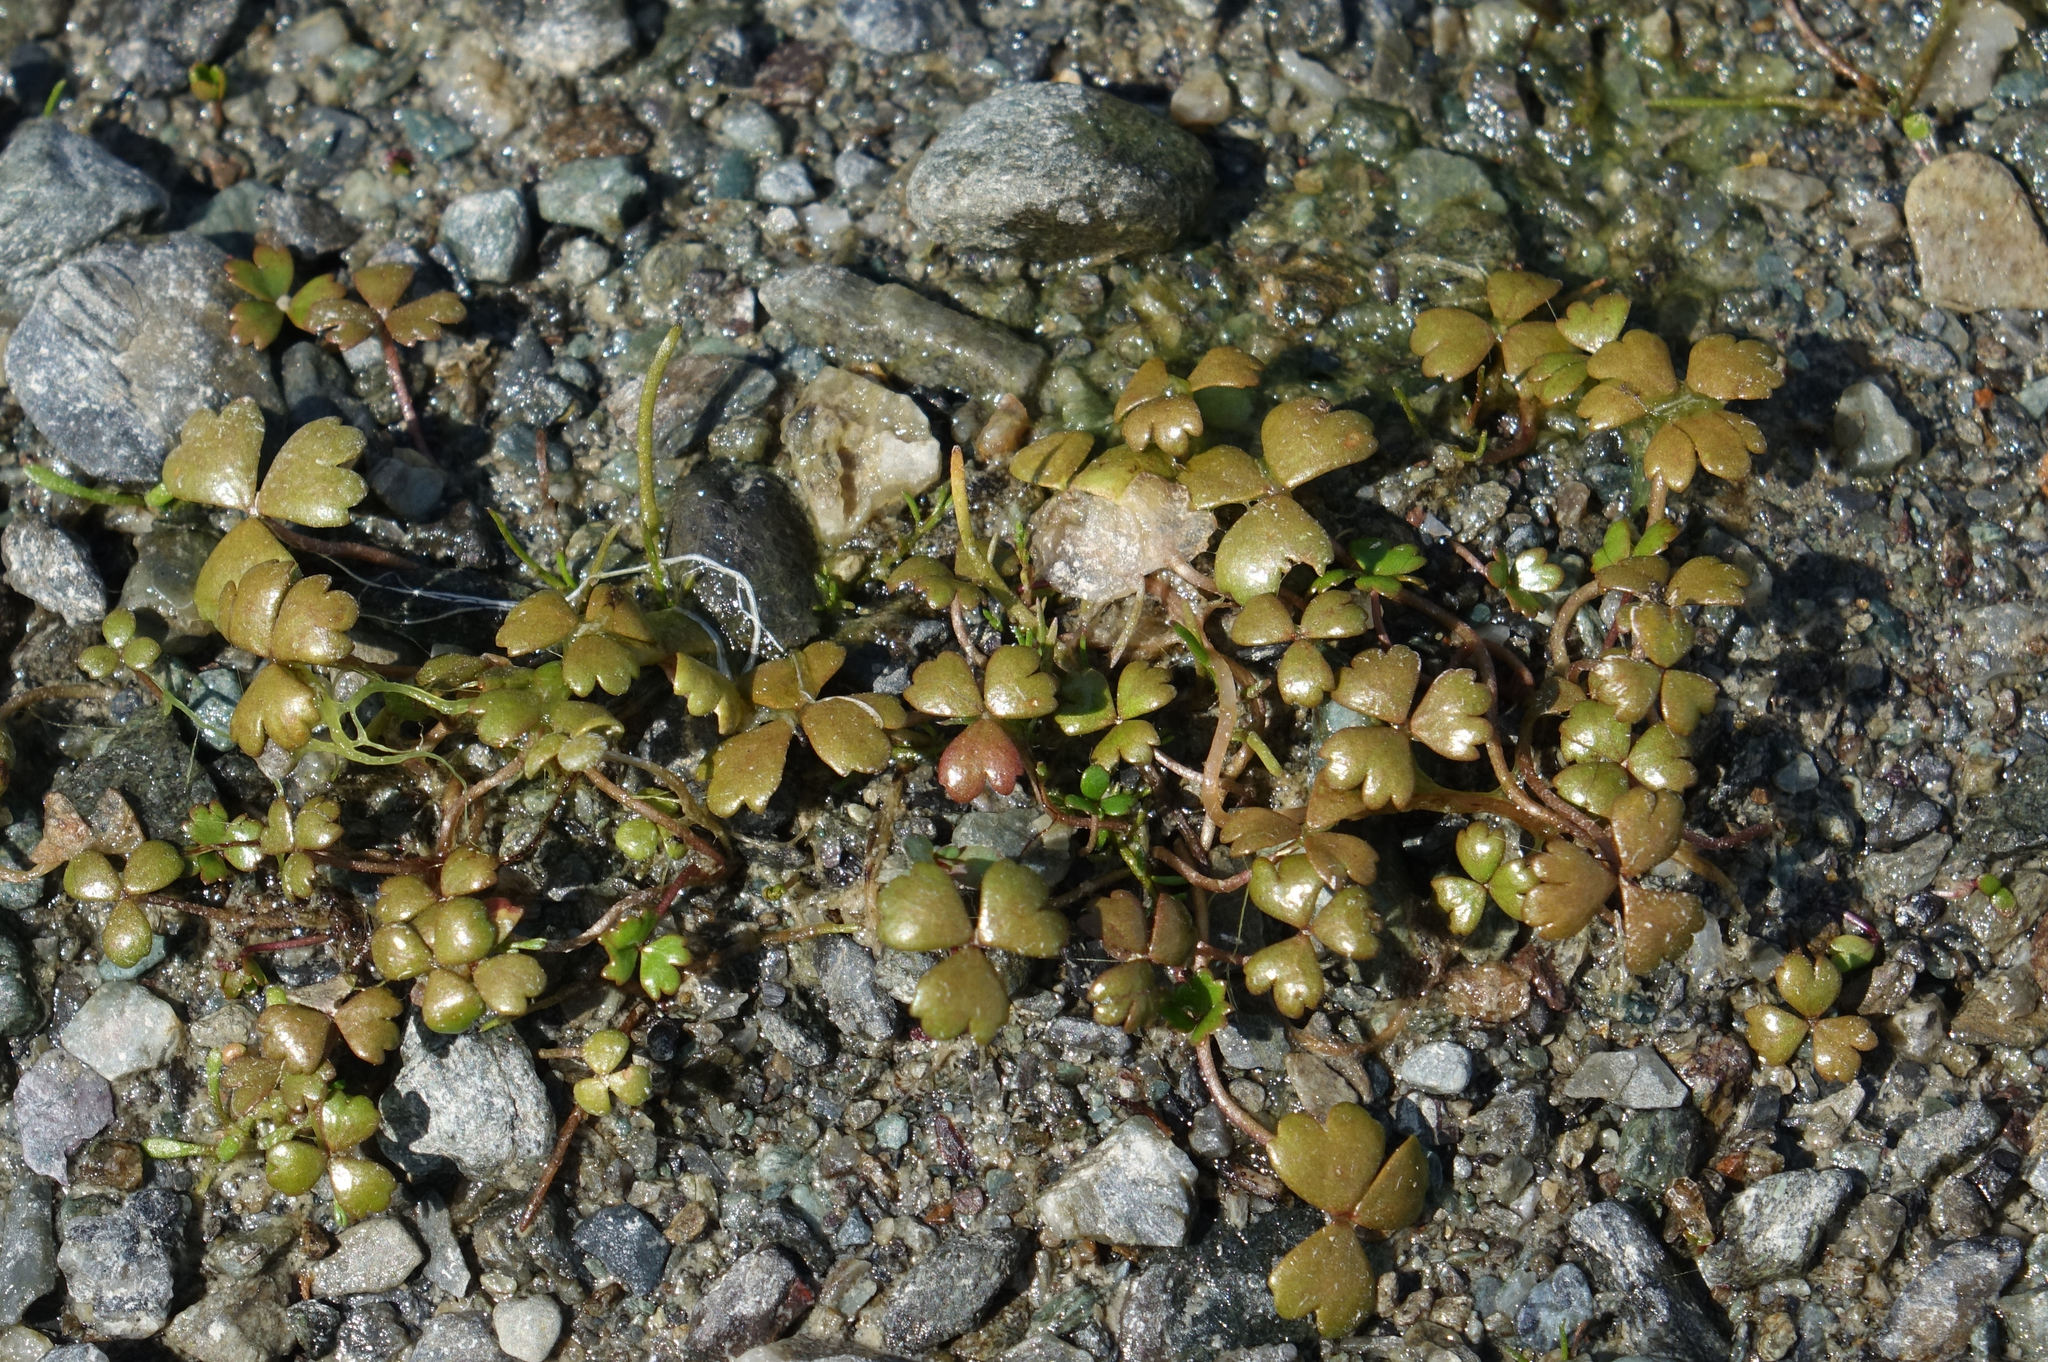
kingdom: Plantae
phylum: Tracheophyta
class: Magnoliopsida
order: Apiales
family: Araliaceae
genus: Hydrocotyle
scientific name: Hydrocotyle sulcata
